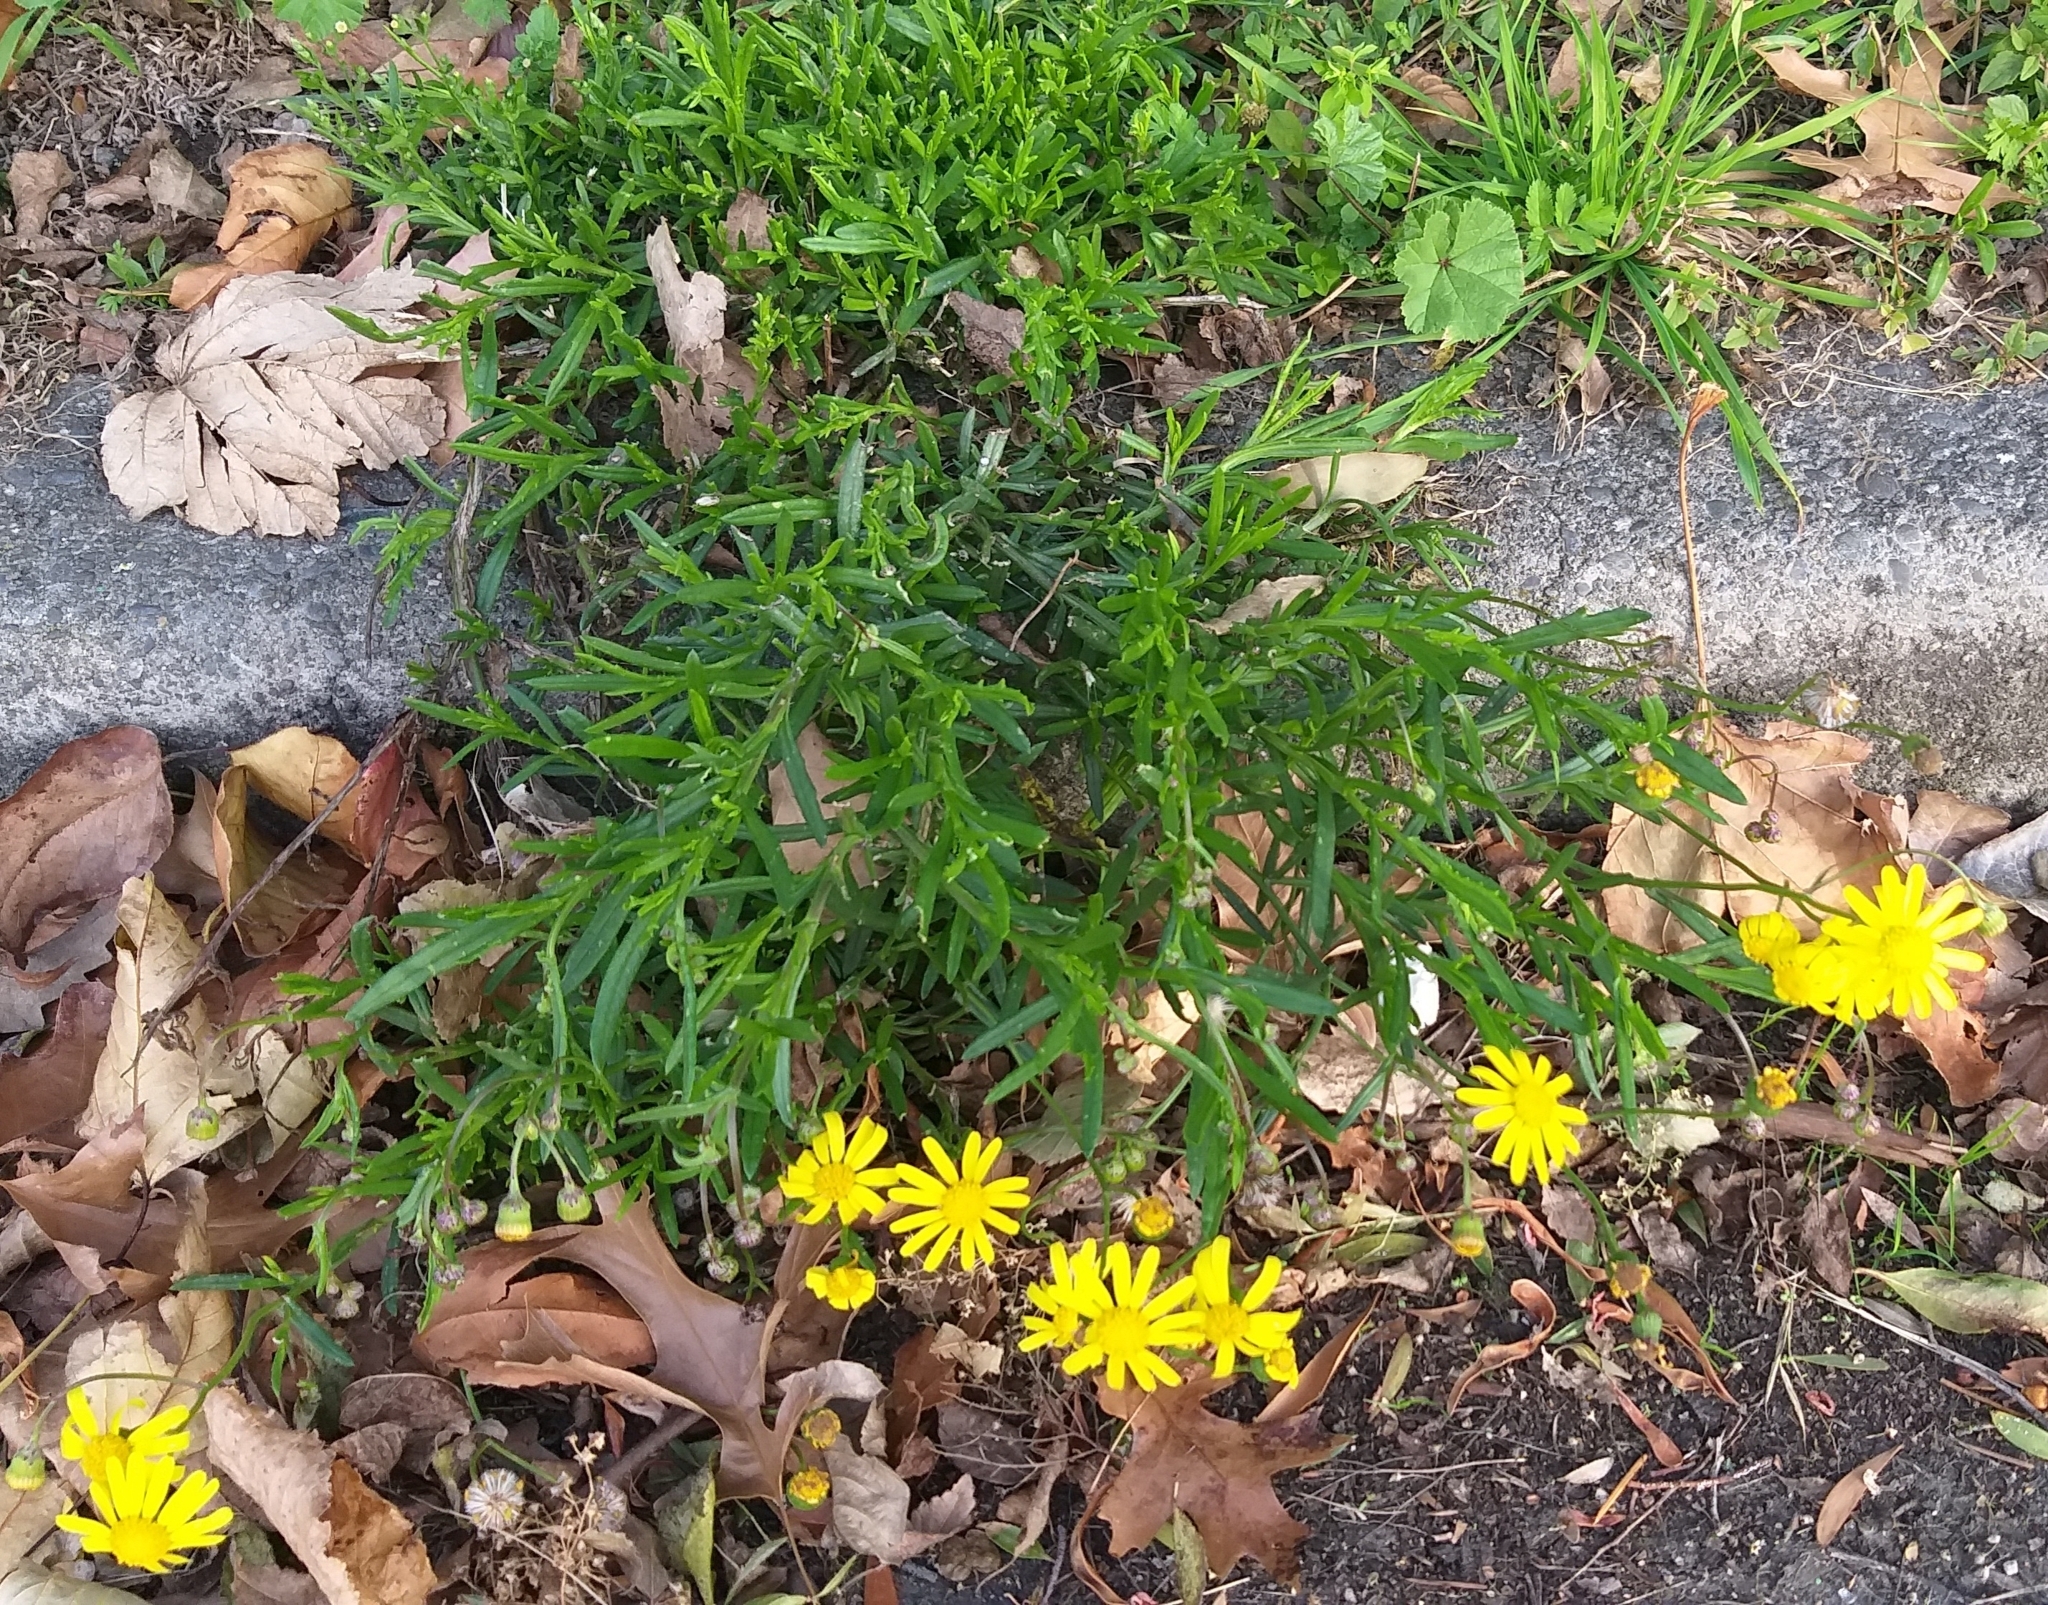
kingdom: Plantae
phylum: Tracheophyta
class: Magnoliopsida
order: Asterales
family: Asteraceae
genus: Senecio
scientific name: Senecio skirrhodon
